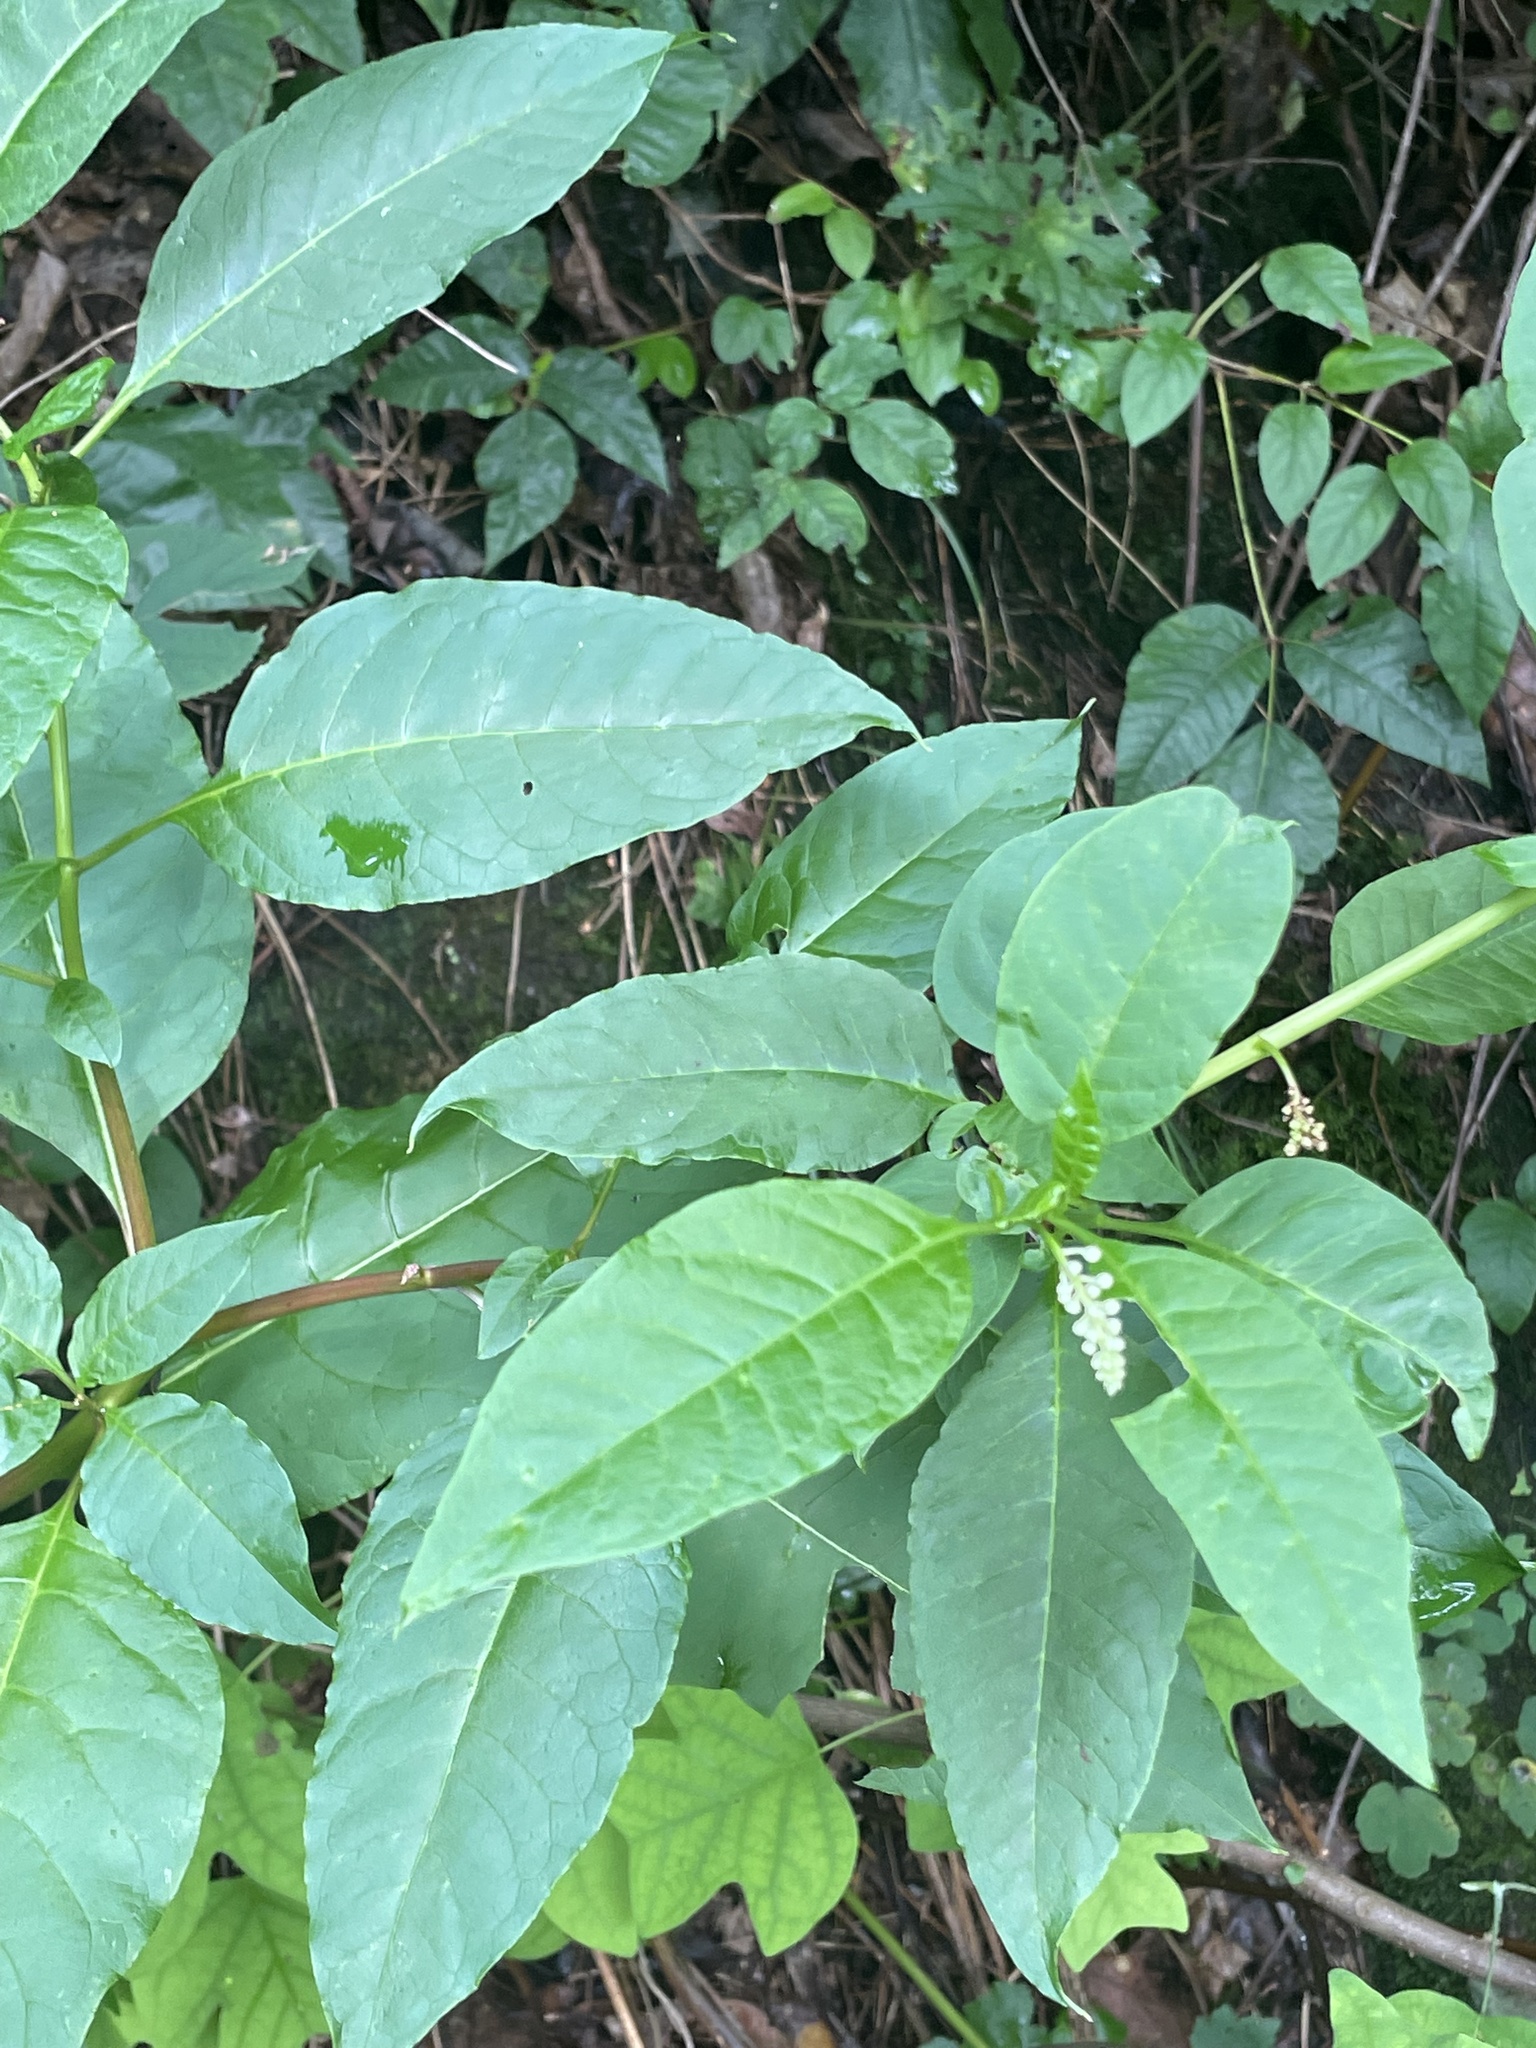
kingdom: Plantae
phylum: Tracheophyta
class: Magnoliopsida
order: Caryophyllales
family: Phytolaccaceae
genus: Phytolacca
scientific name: Phytolacca americana
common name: American pokeweed
